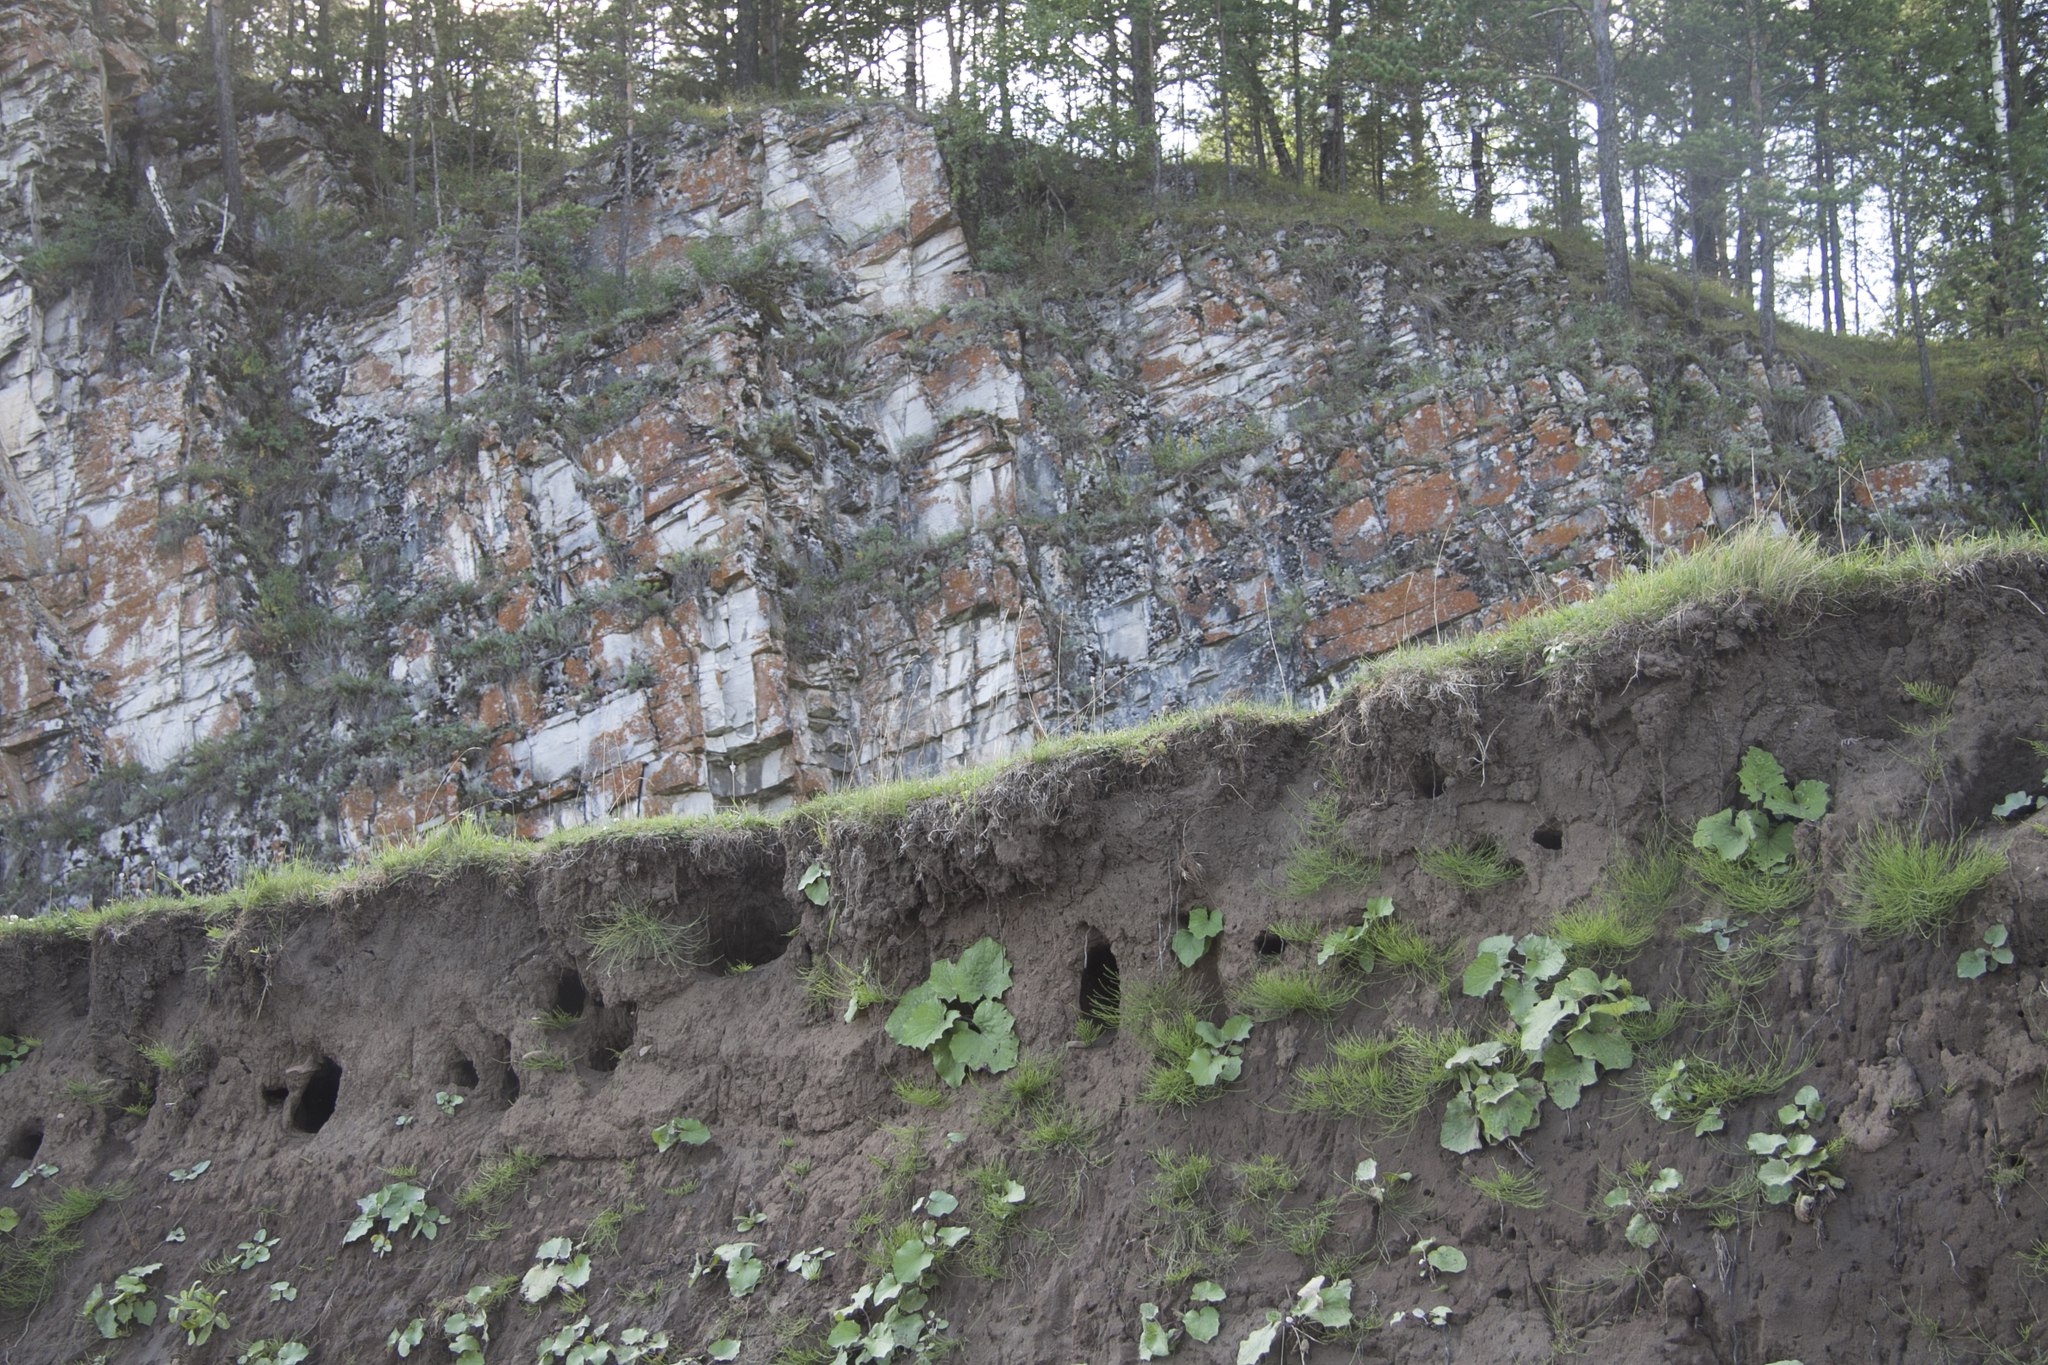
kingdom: Animalia
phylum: Chordata
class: Aves
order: Passeriformes
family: Hirundinidae
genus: Riparia
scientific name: Riparia riparia
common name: Sand martin
